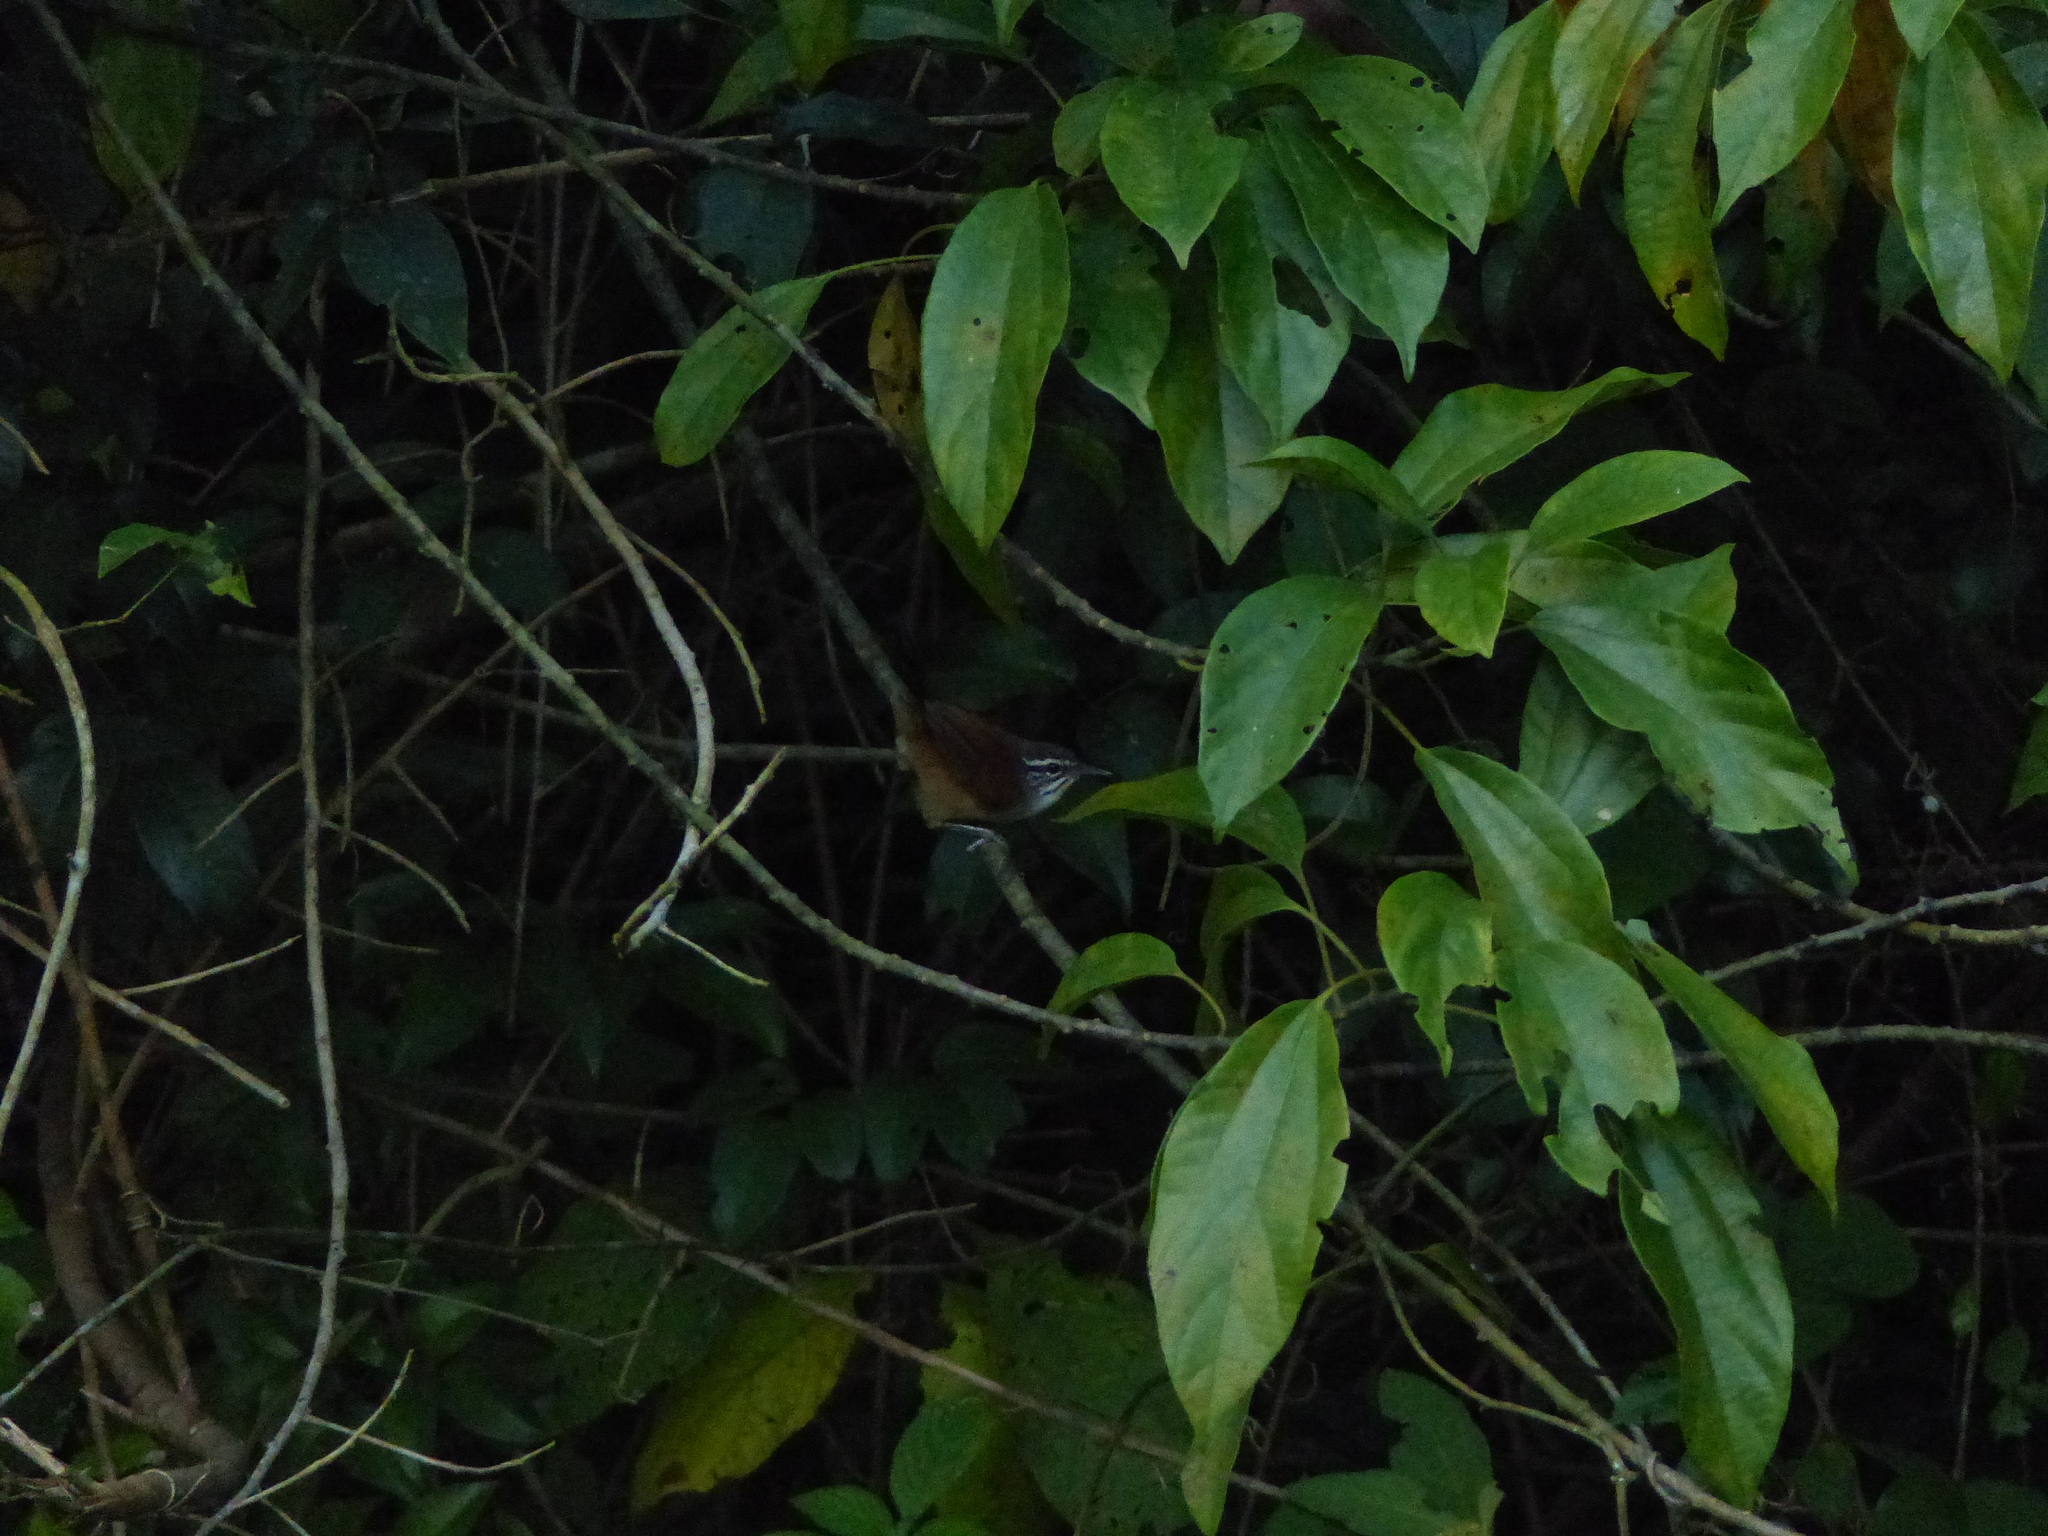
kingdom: Animalia
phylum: Chordata
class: Aves
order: Passeriformes
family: Troglodytidae
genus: Pheugopedius
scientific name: Pheugopedius genibarbis
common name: Moustached wren
